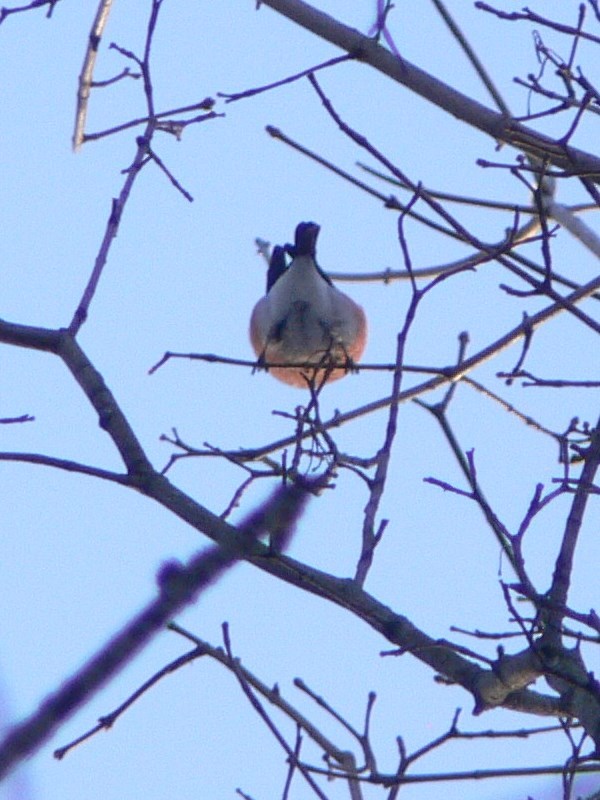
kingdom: Animalia
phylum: Chordata
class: Aves
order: Passeriformes
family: Fringillidae
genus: Pyrrhula
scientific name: Pyrrhula pyrrhula
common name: Eurasian bullfinch
